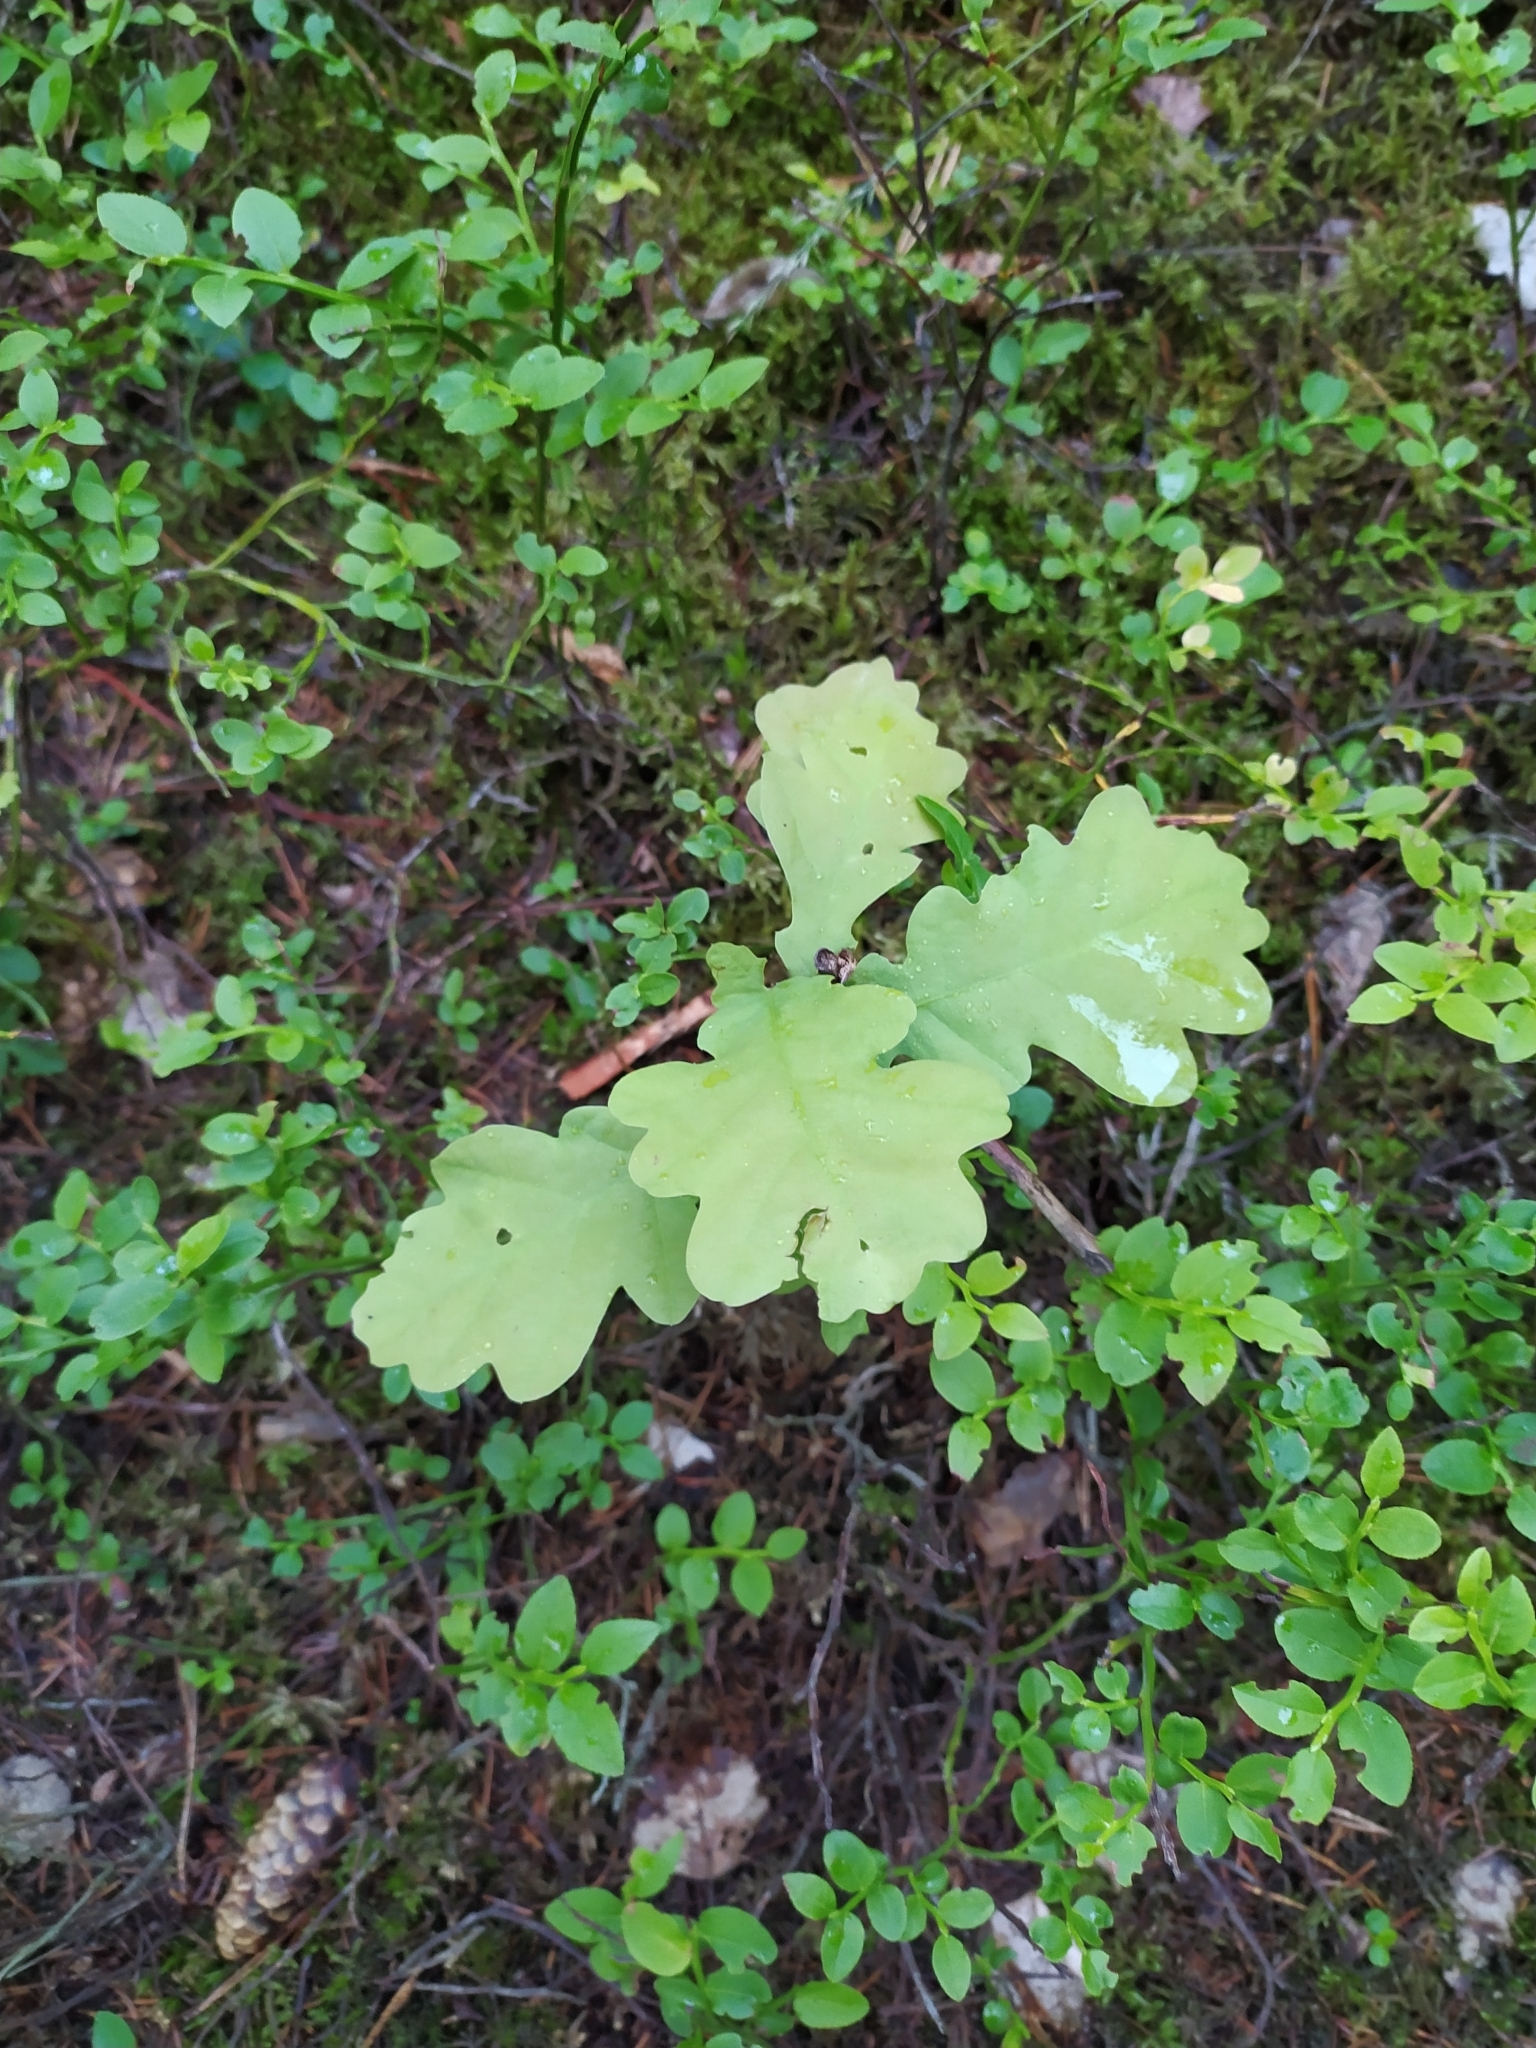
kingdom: Plantae
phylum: Tracheophyta
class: Magnoliopsida
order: Fagales
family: Fagaceae
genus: Quercus
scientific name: Quercus robur
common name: Pedunculate oak
